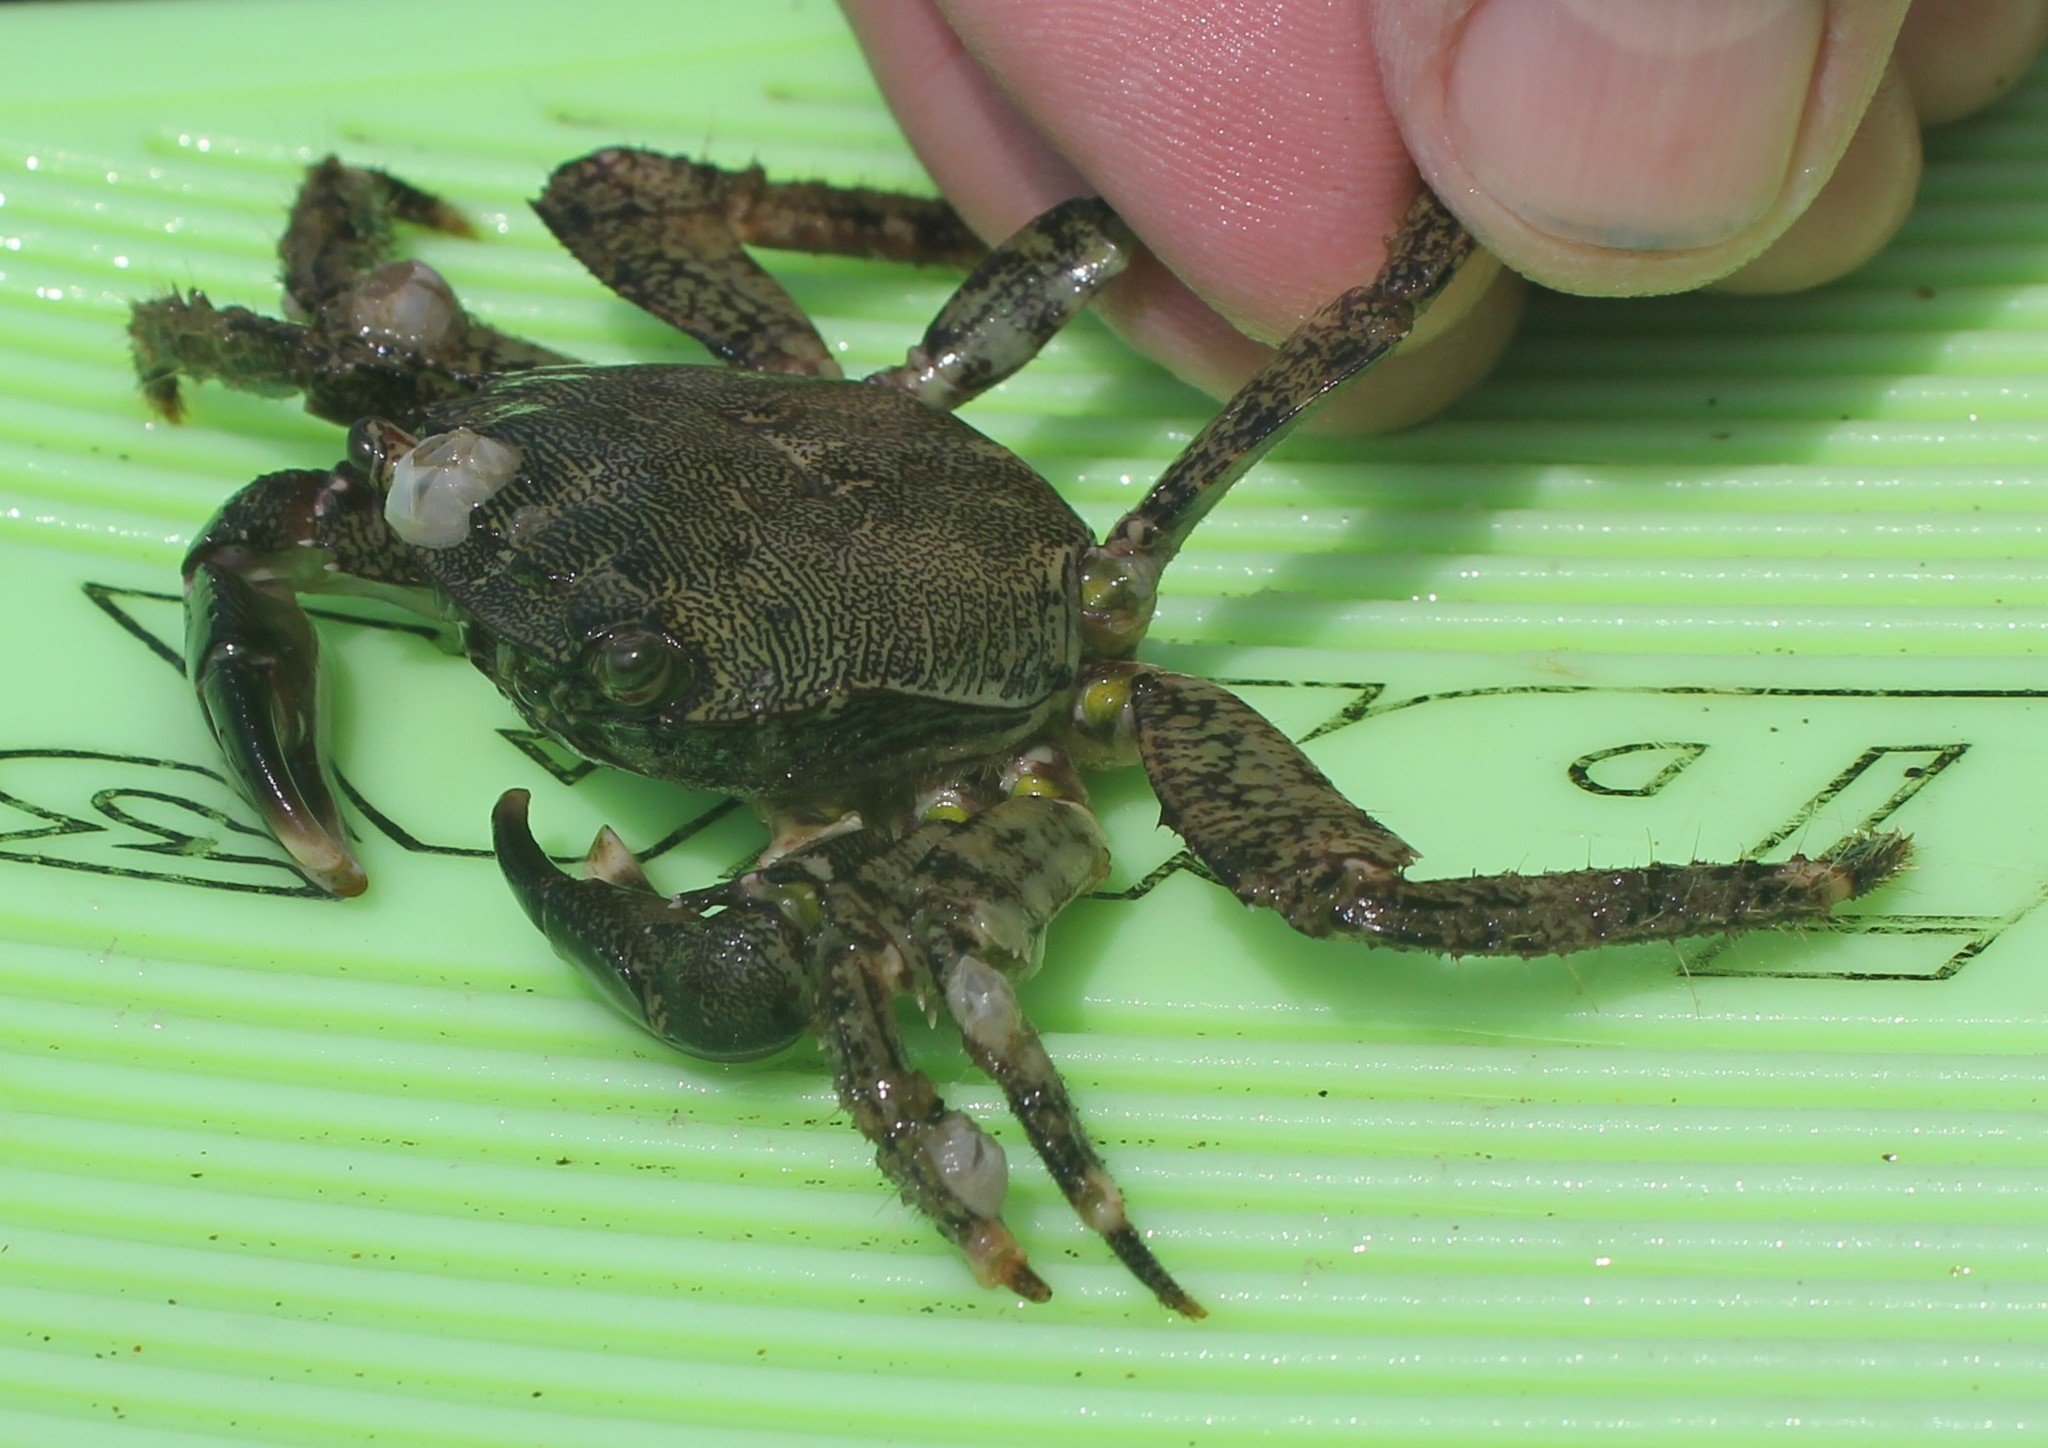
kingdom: Animalia
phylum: Arthropoda
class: Malacostraca
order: Decapoda
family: Grapsidae
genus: Pachygrapsus
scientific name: Pachygrapsus marmoratus
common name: Marbled rock crab
